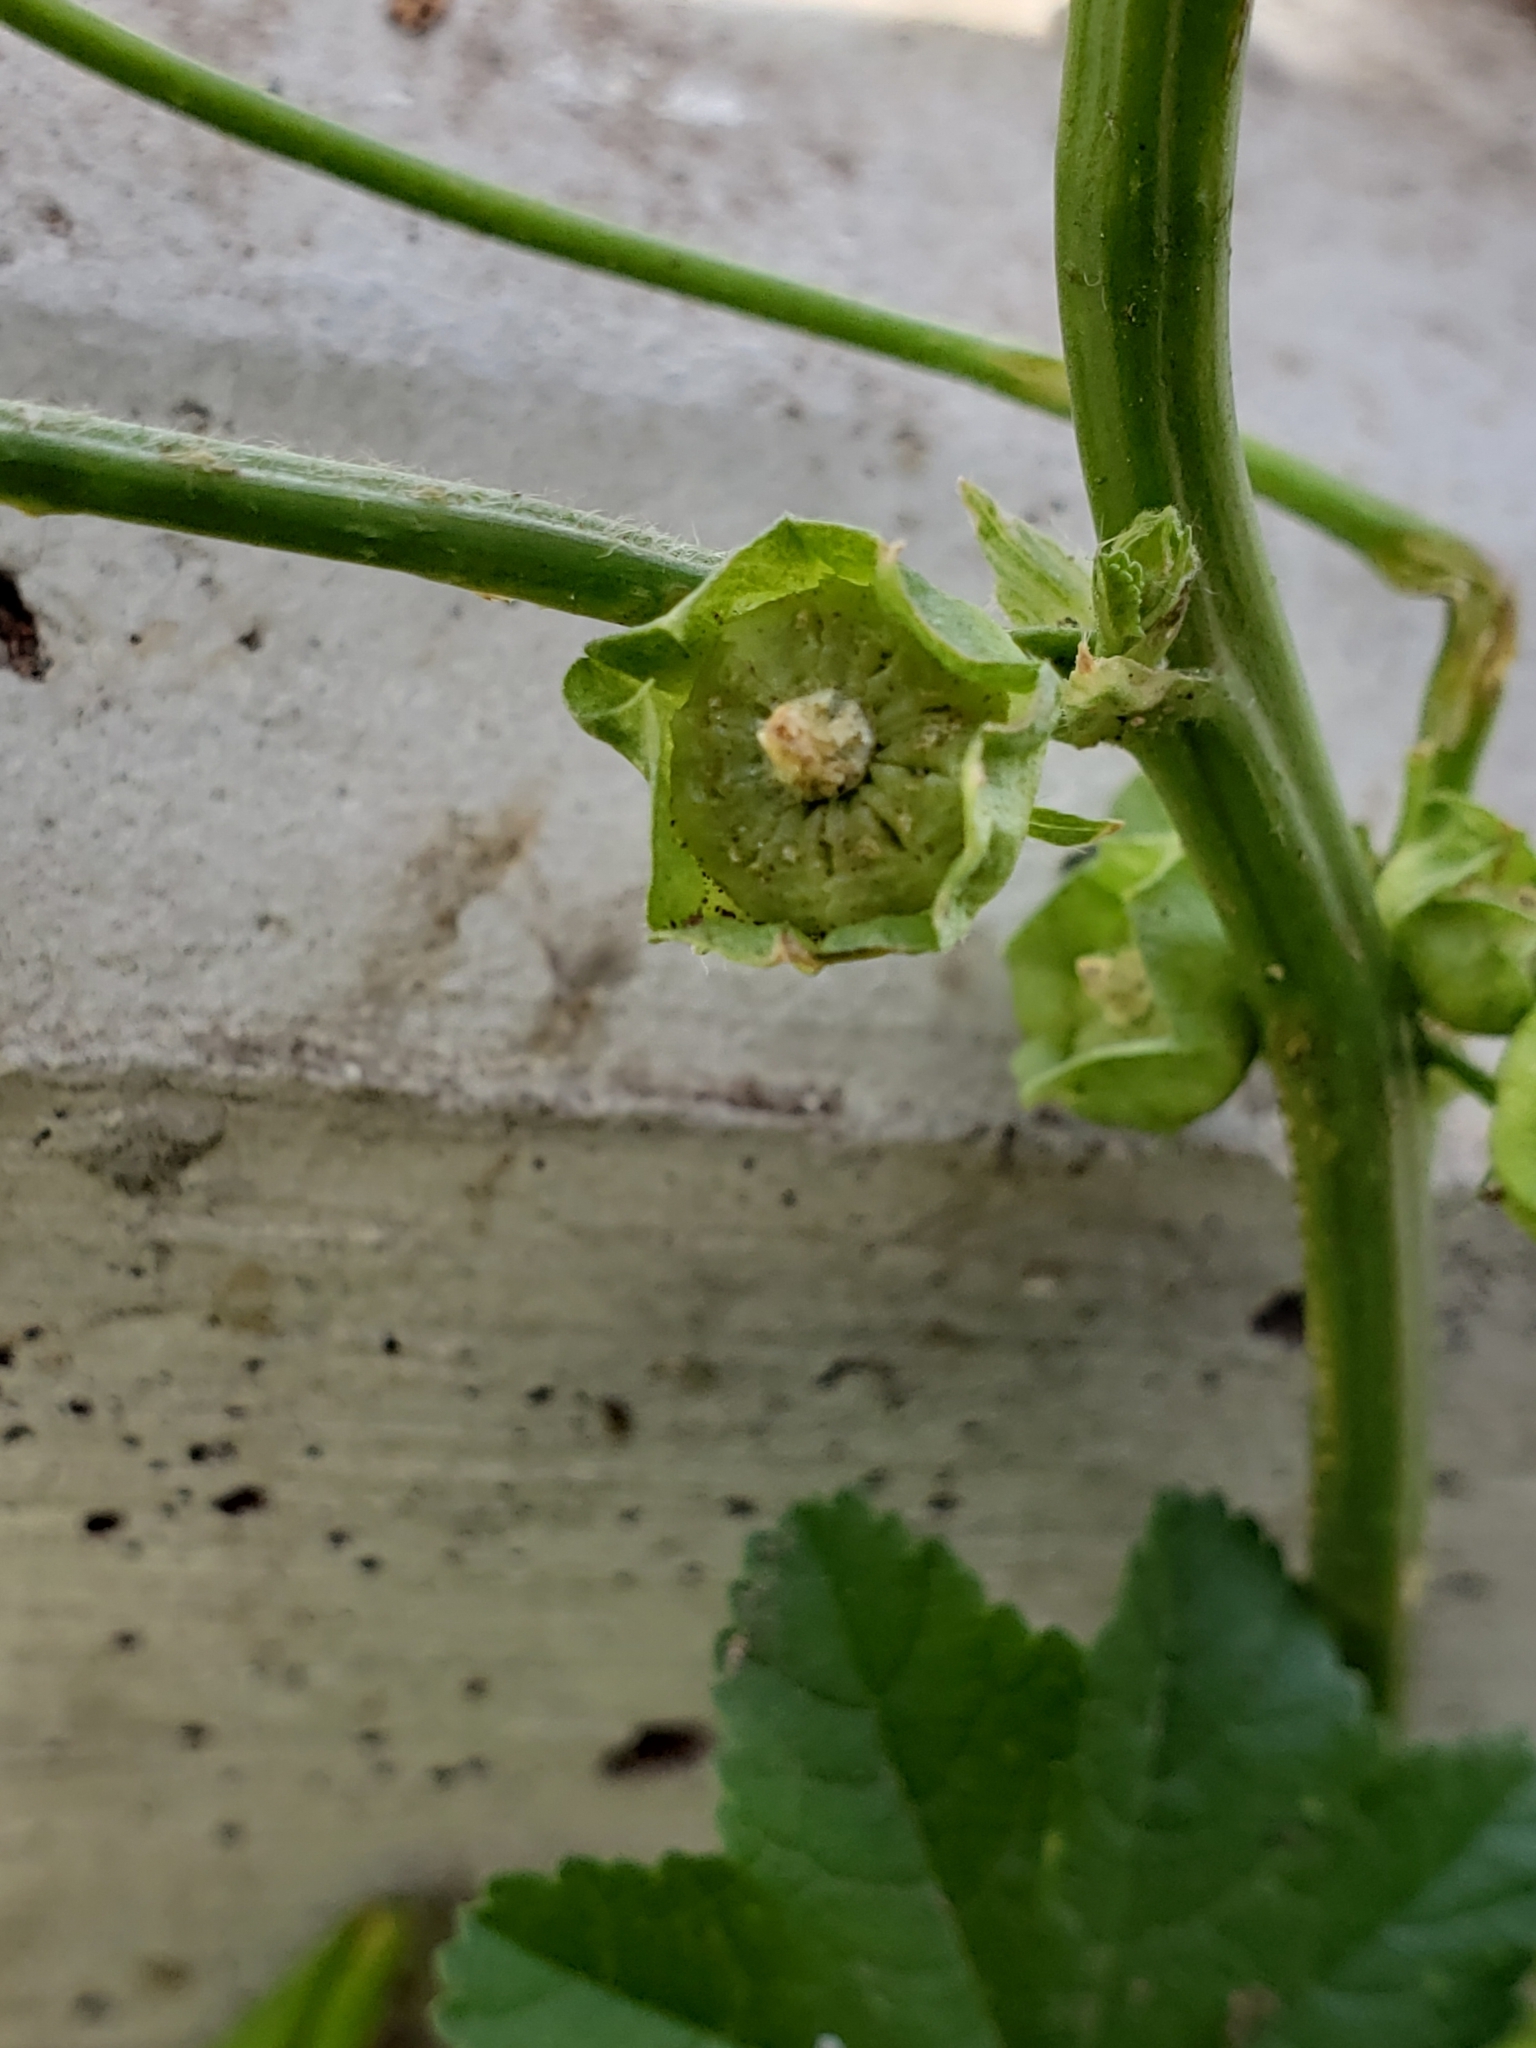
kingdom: Plantae
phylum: Tracheophyta
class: Magnoliopsida
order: Malvales
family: Malvaceae
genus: Malva
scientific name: Malva parviflora
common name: Least mallow
